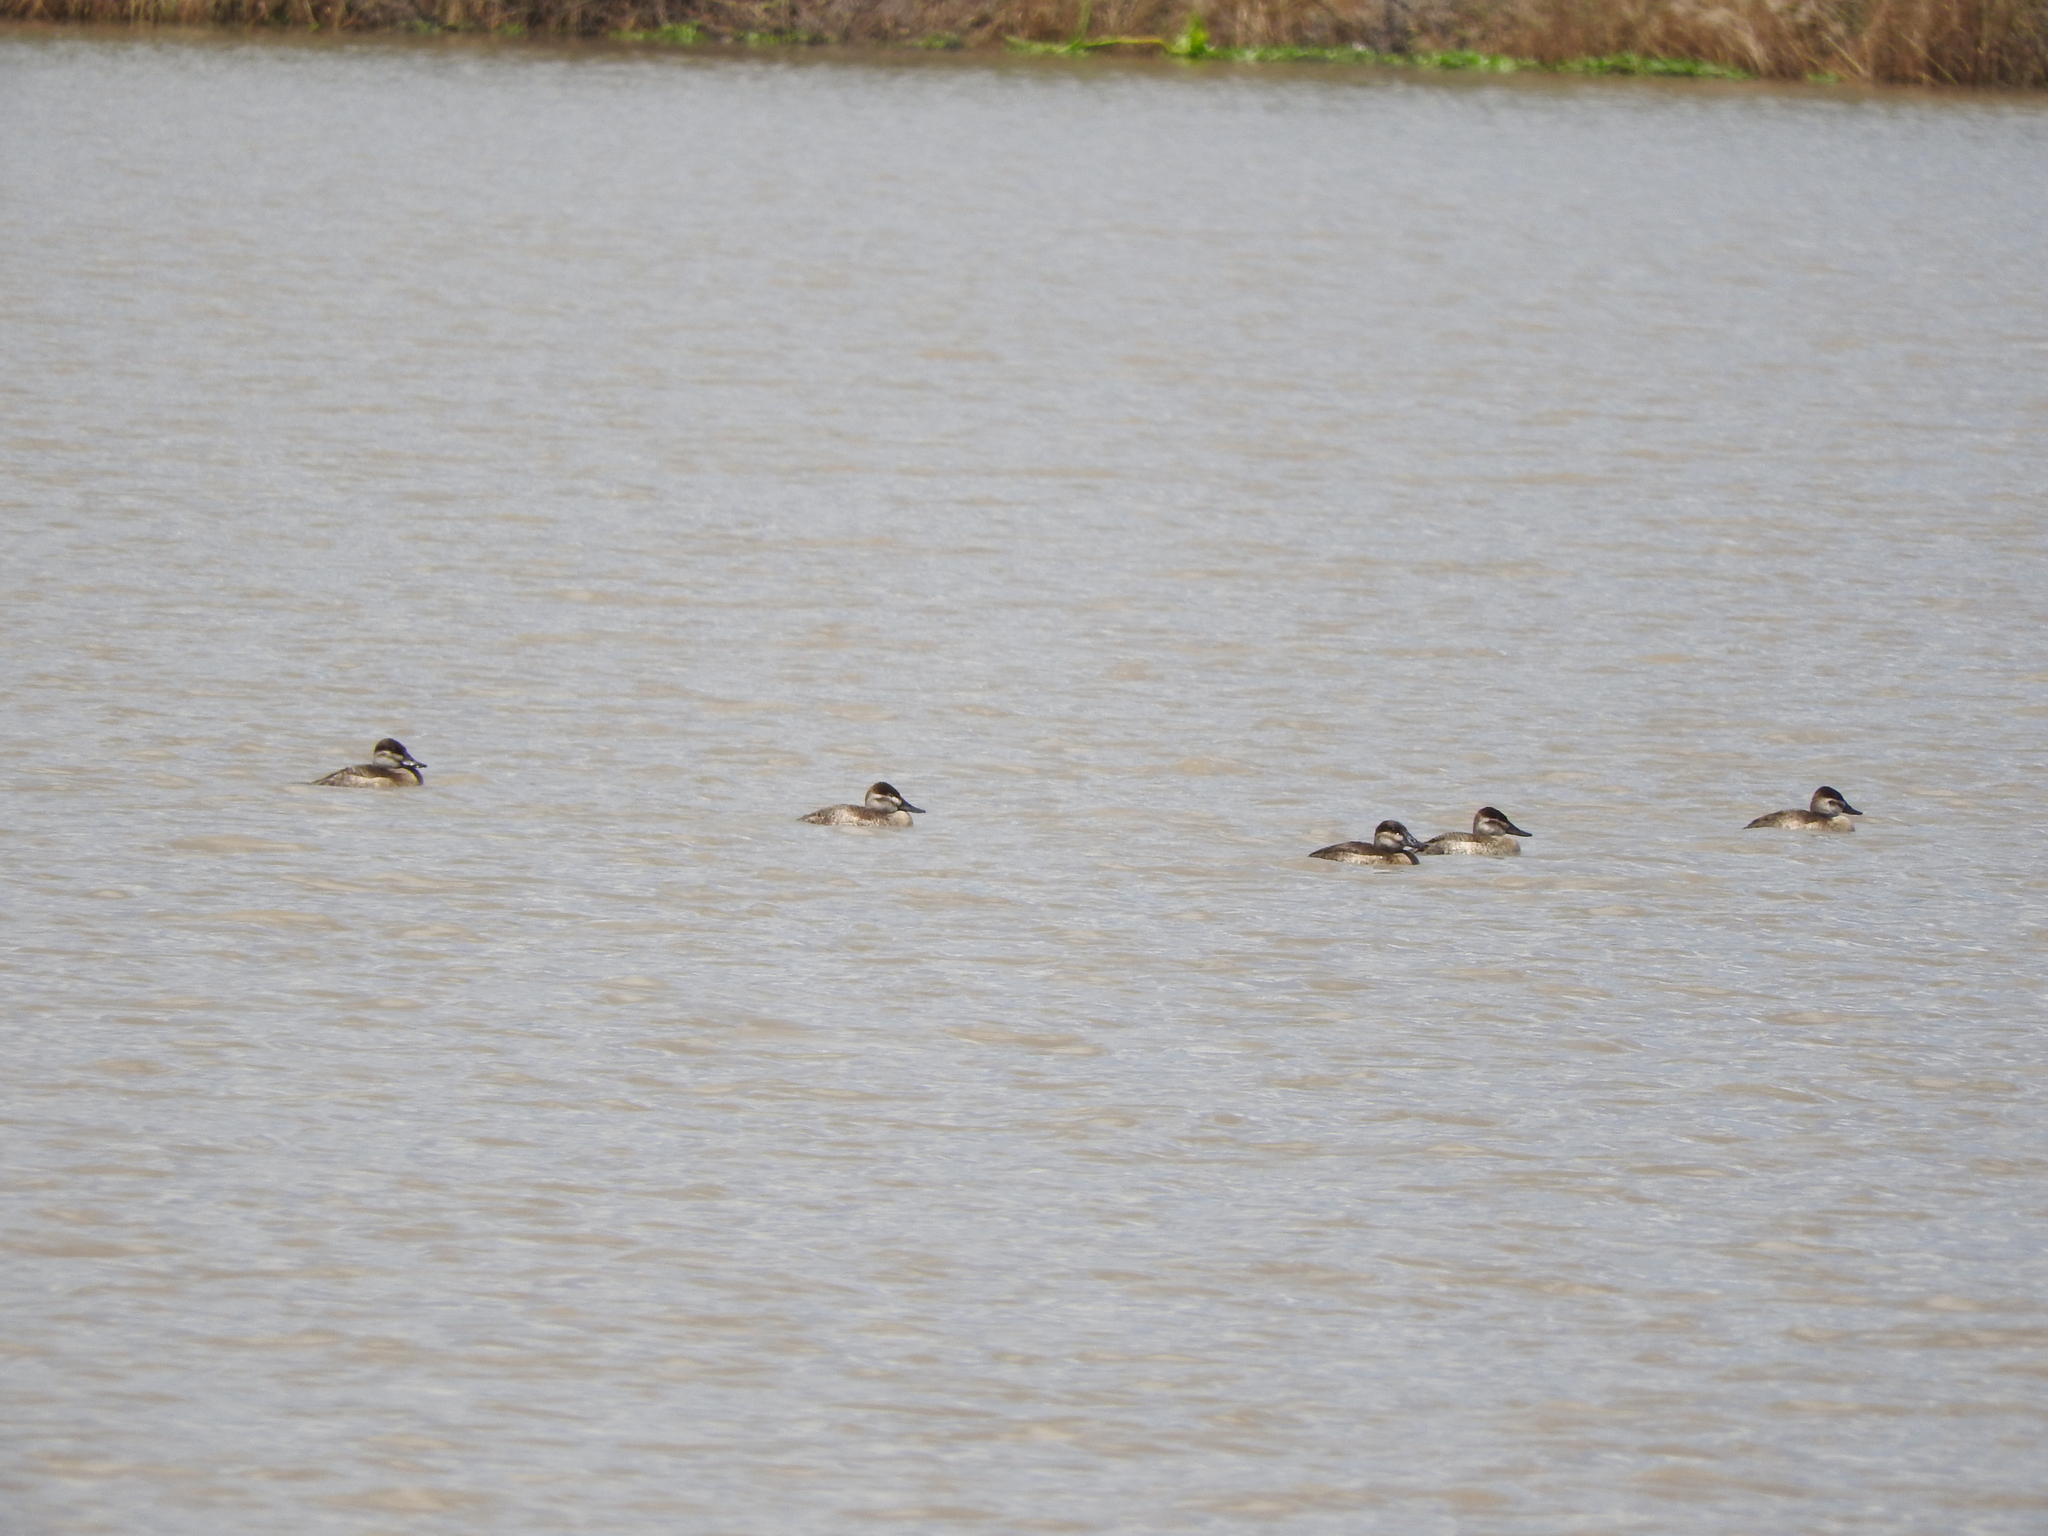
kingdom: Animalia
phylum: Chordata
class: Aves
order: Anseriformes
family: Anatidae
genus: Oxyura
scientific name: Oxyura jamaicensis
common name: Ruddy duck
